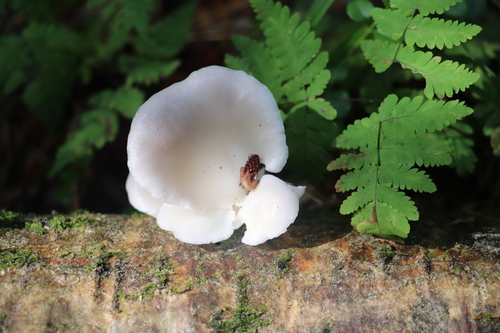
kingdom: Fungi
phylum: Basidiomycota
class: Agaricomycetes
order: Agaricales
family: Pleurotaceae
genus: Pleurotus
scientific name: Pleurotus pulmonarius
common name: Pale oyster
